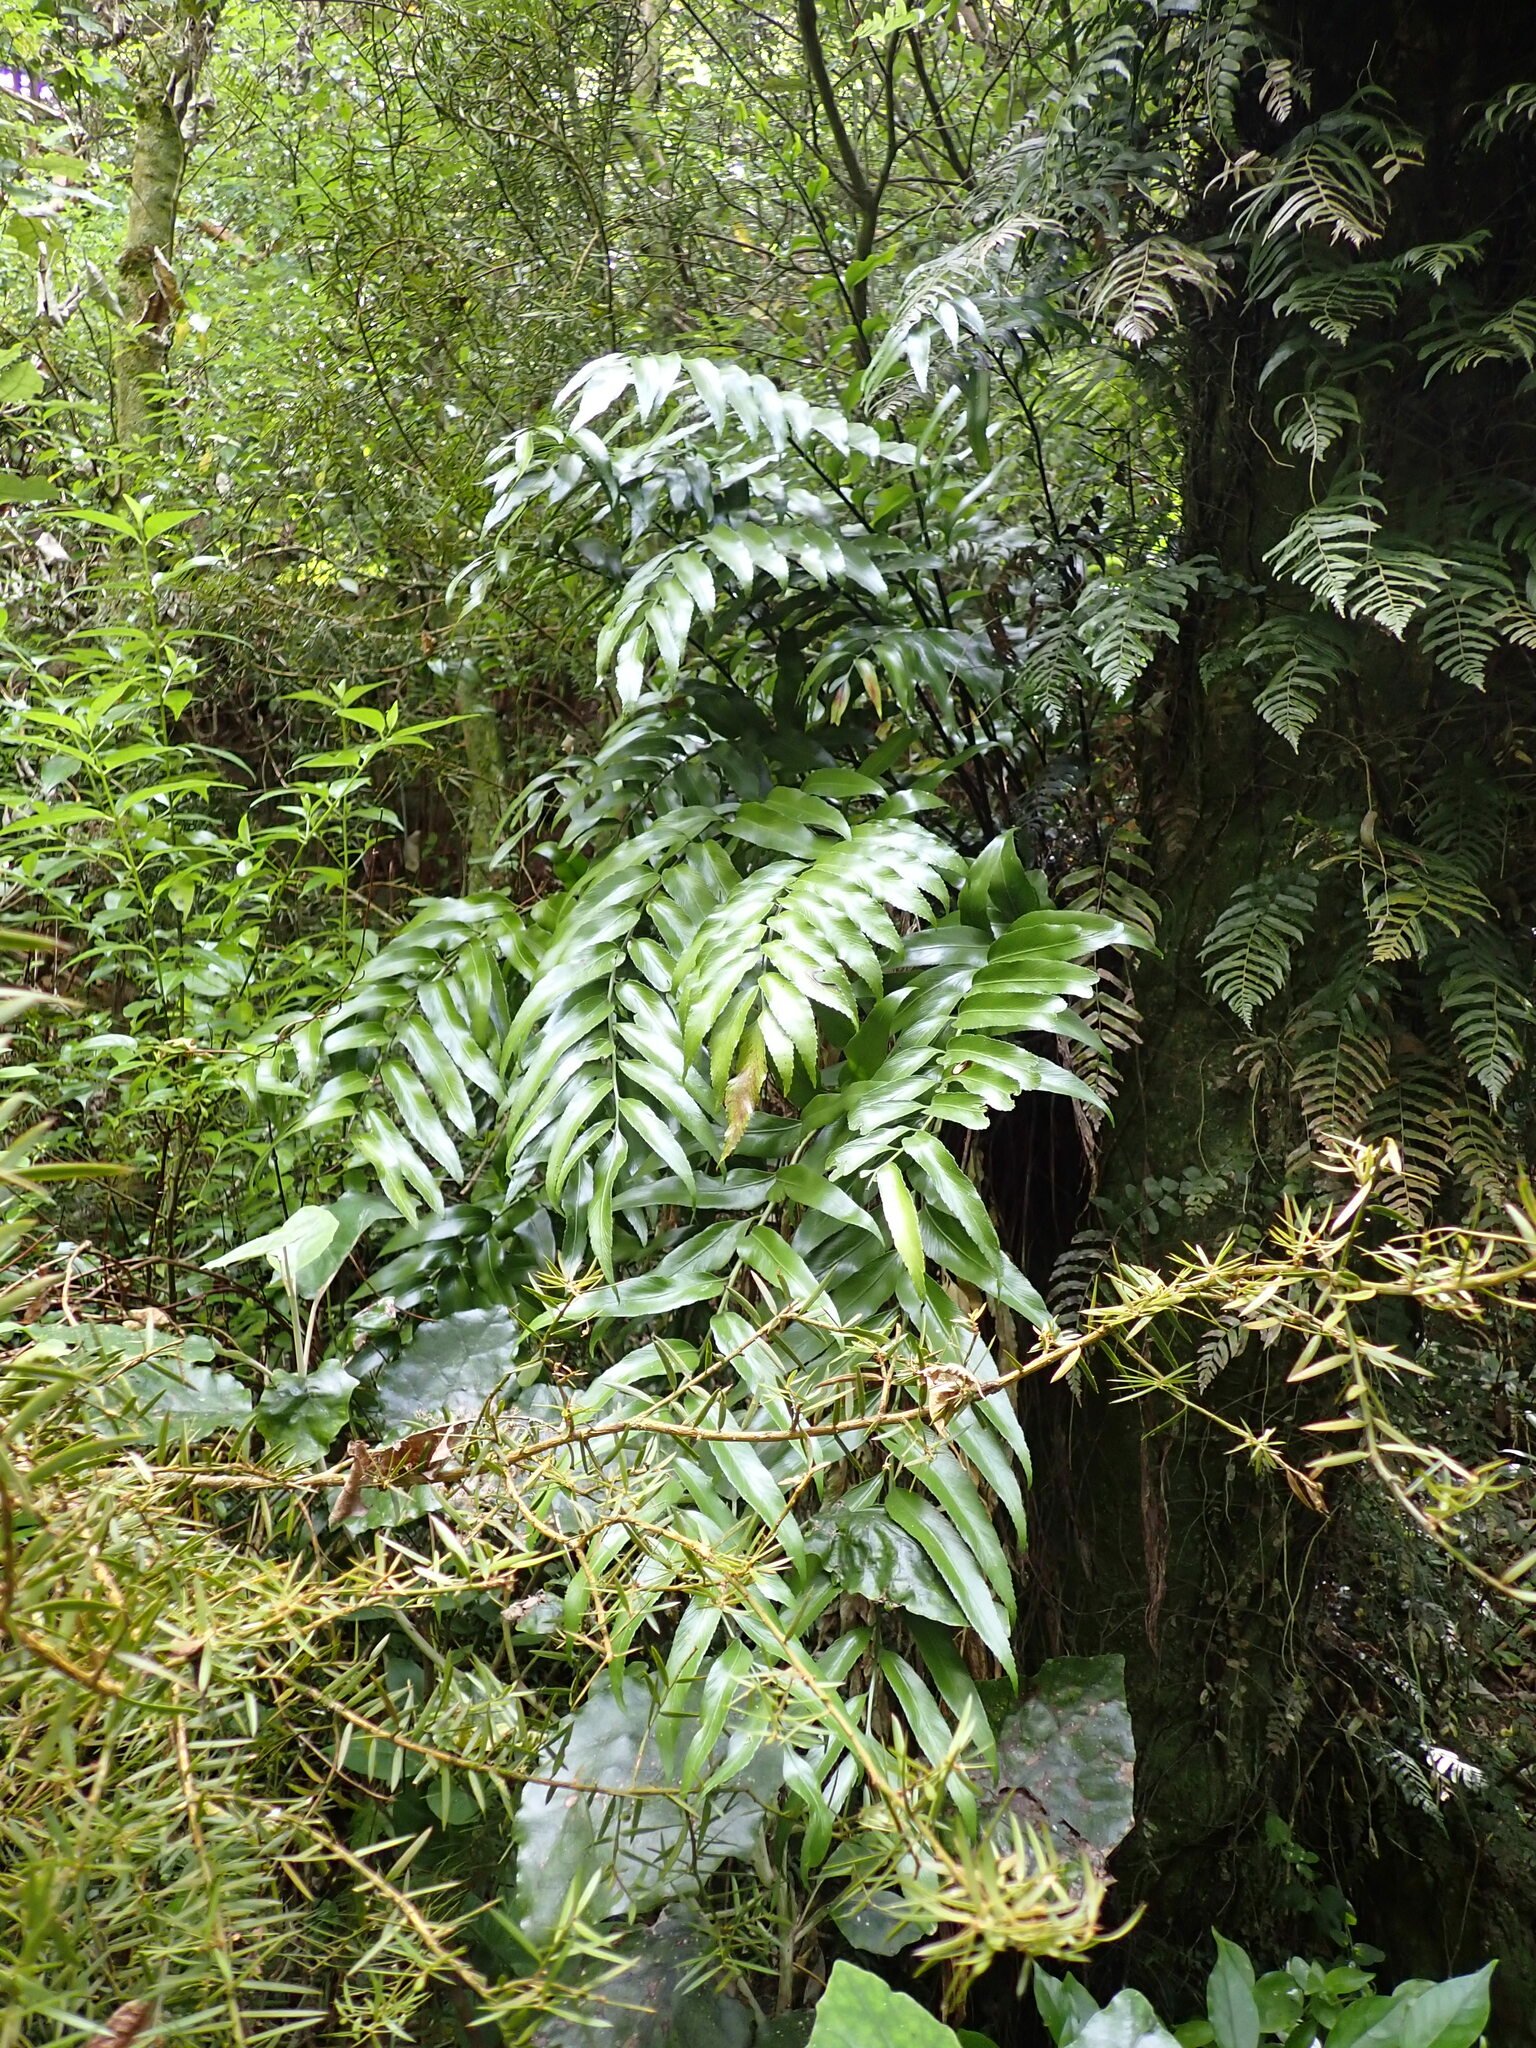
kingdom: Plantae
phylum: Tracheophyta
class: Polypodiopsida
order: Polypodiales
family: Aspleniaceae
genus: Asplenium
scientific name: Asplenium oblongifolium
